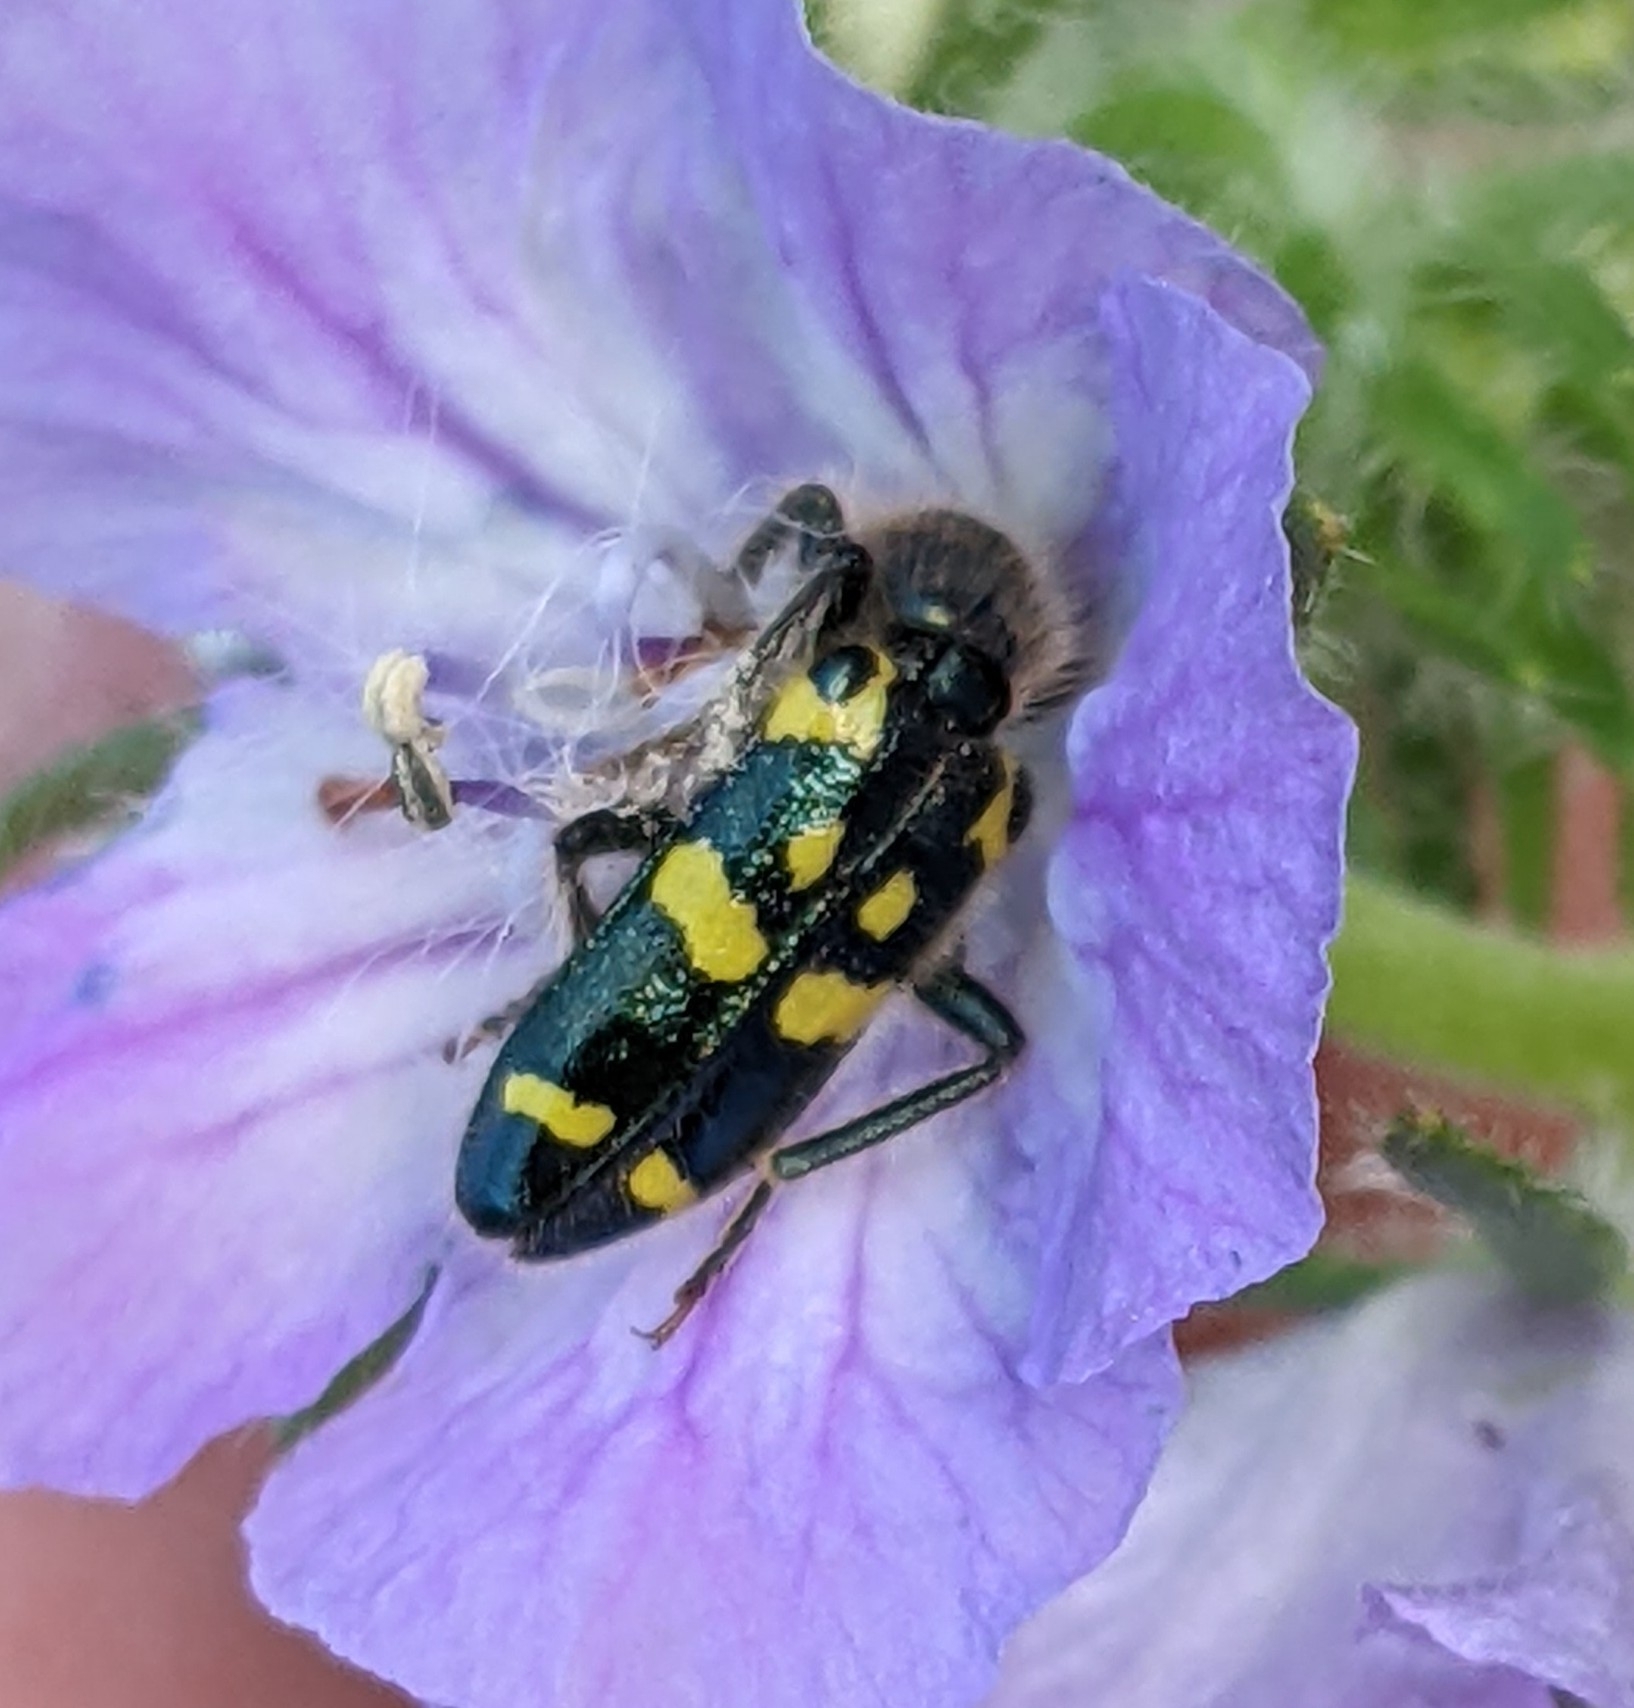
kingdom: Animalia
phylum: Arthropoda
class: Insecta
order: Coleoptera
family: Cleridae
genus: Trichodes
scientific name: Trichodes ornatus
